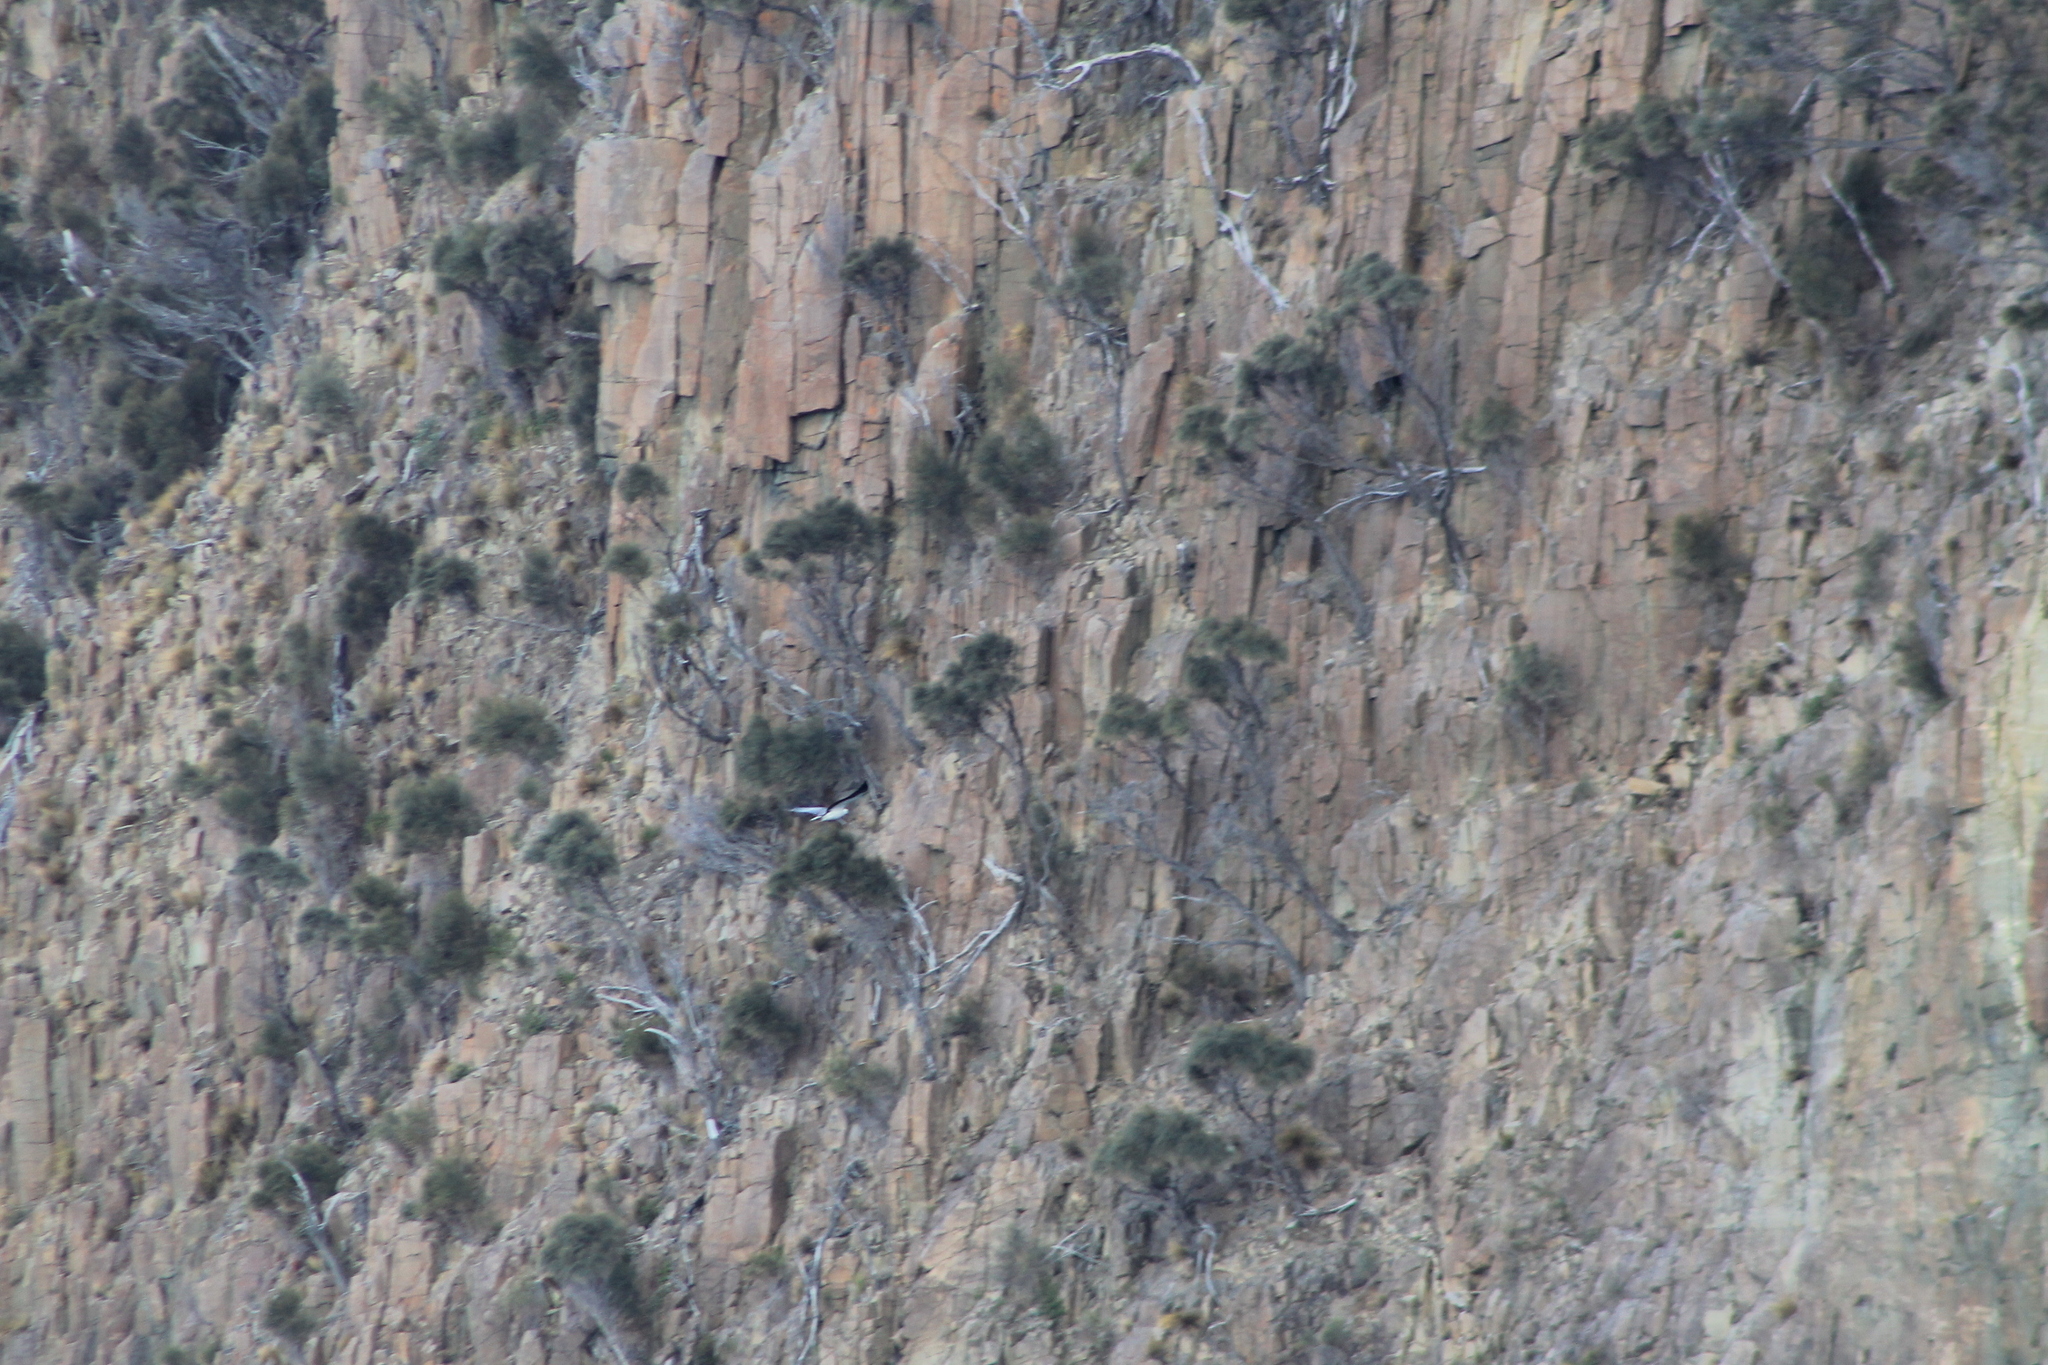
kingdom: Animalia
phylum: Chordata
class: Aves
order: Accipitriformes
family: Accipitridae
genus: Haliaeetus
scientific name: Haliaeetus leucogaster
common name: White-bellied sea eagle
